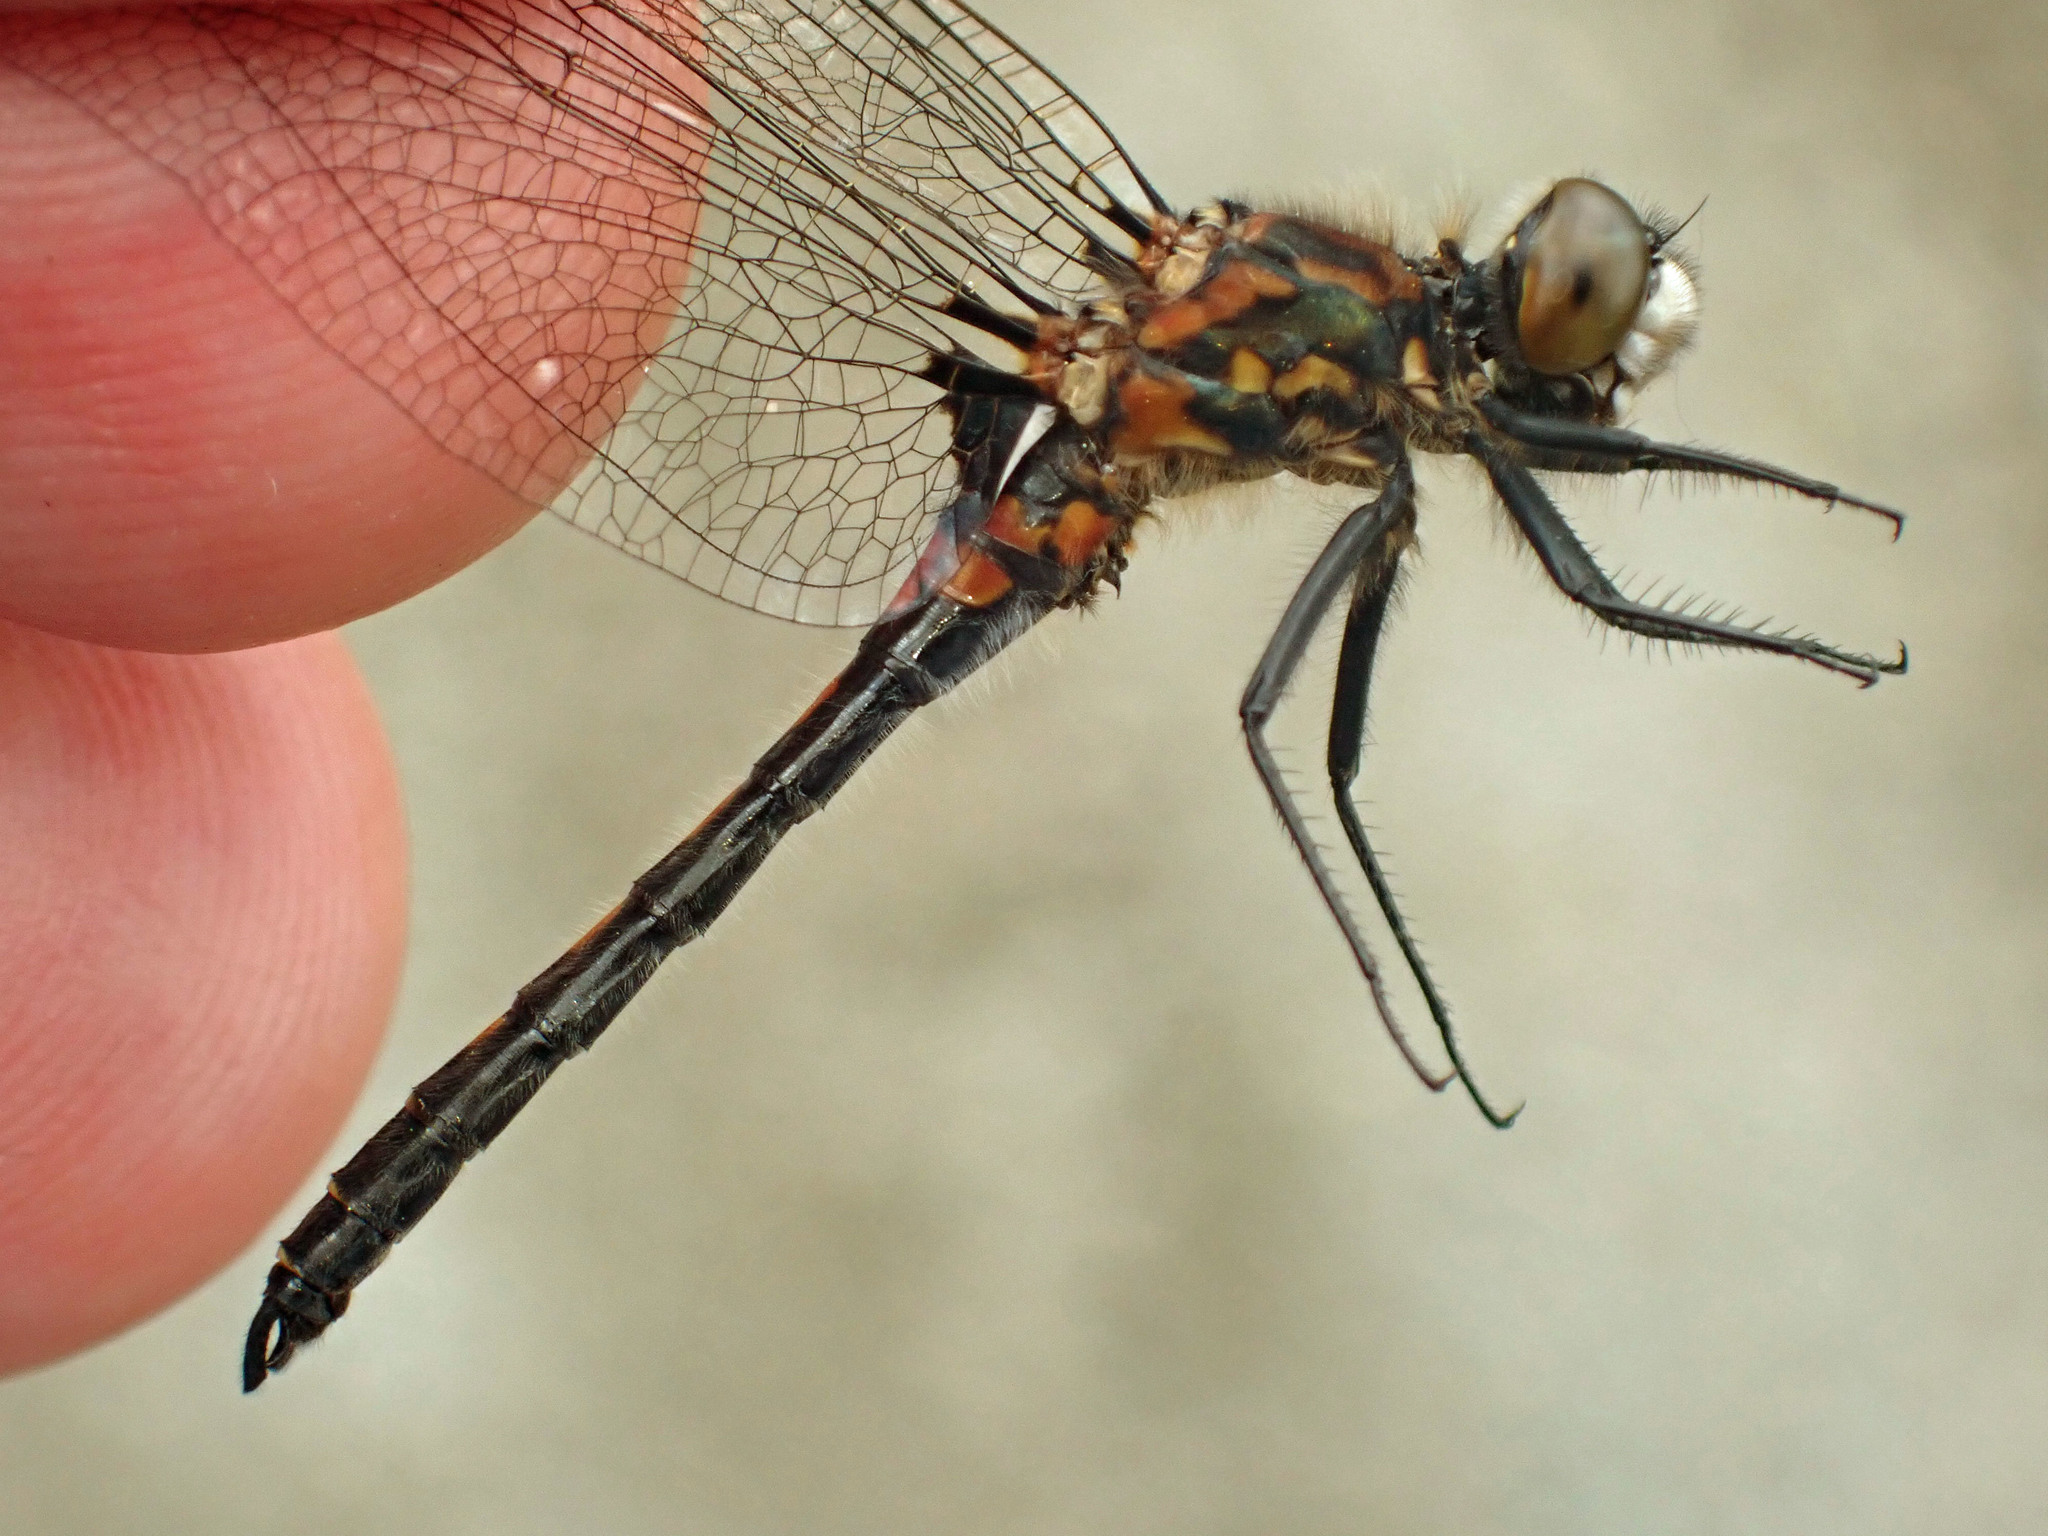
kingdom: Animalia
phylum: Arthropoda
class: Insecta
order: Odonata
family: Libellulidae
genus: Leucorrhinia
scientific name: Leucorrhinia hudsonica
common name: Hudsonian whiteface
